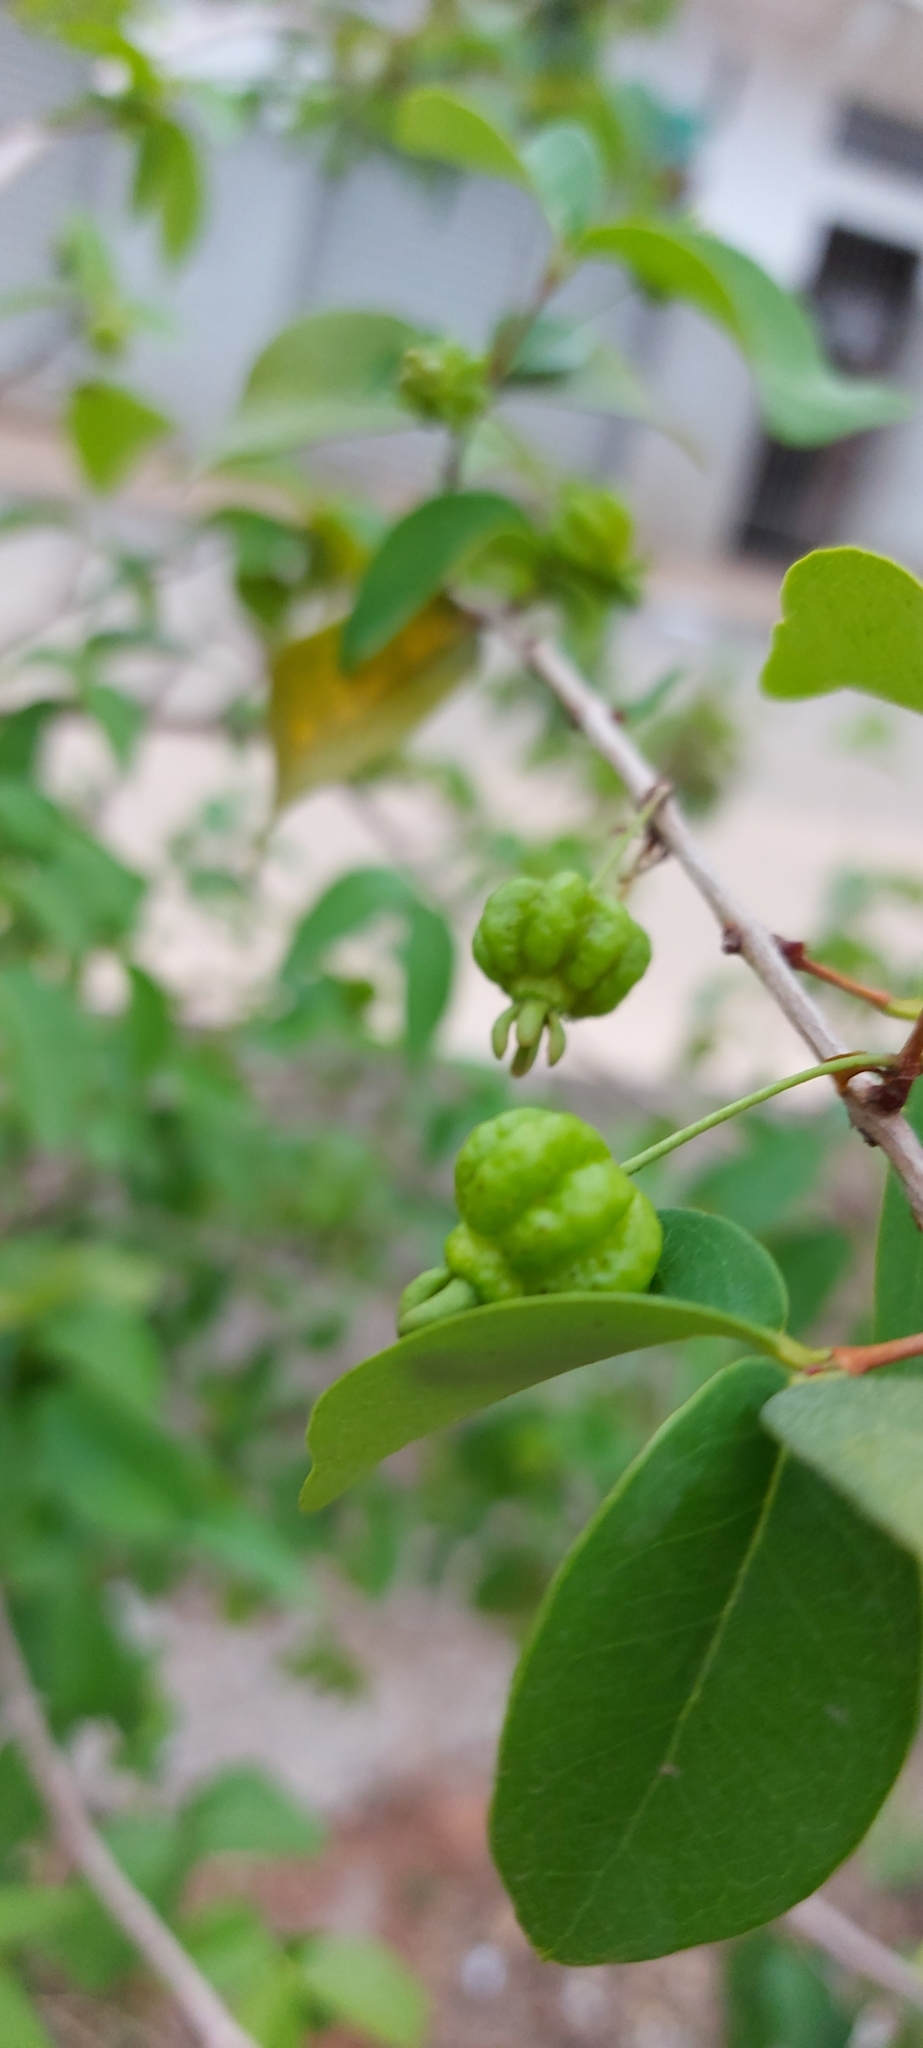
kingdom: Plantae
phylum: Tracheophyta
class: Magnoliopsida
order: Myrtales
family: Myrtaceae
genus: Eugenia
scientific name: Eugenia uniflora
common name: Surinam cherry
